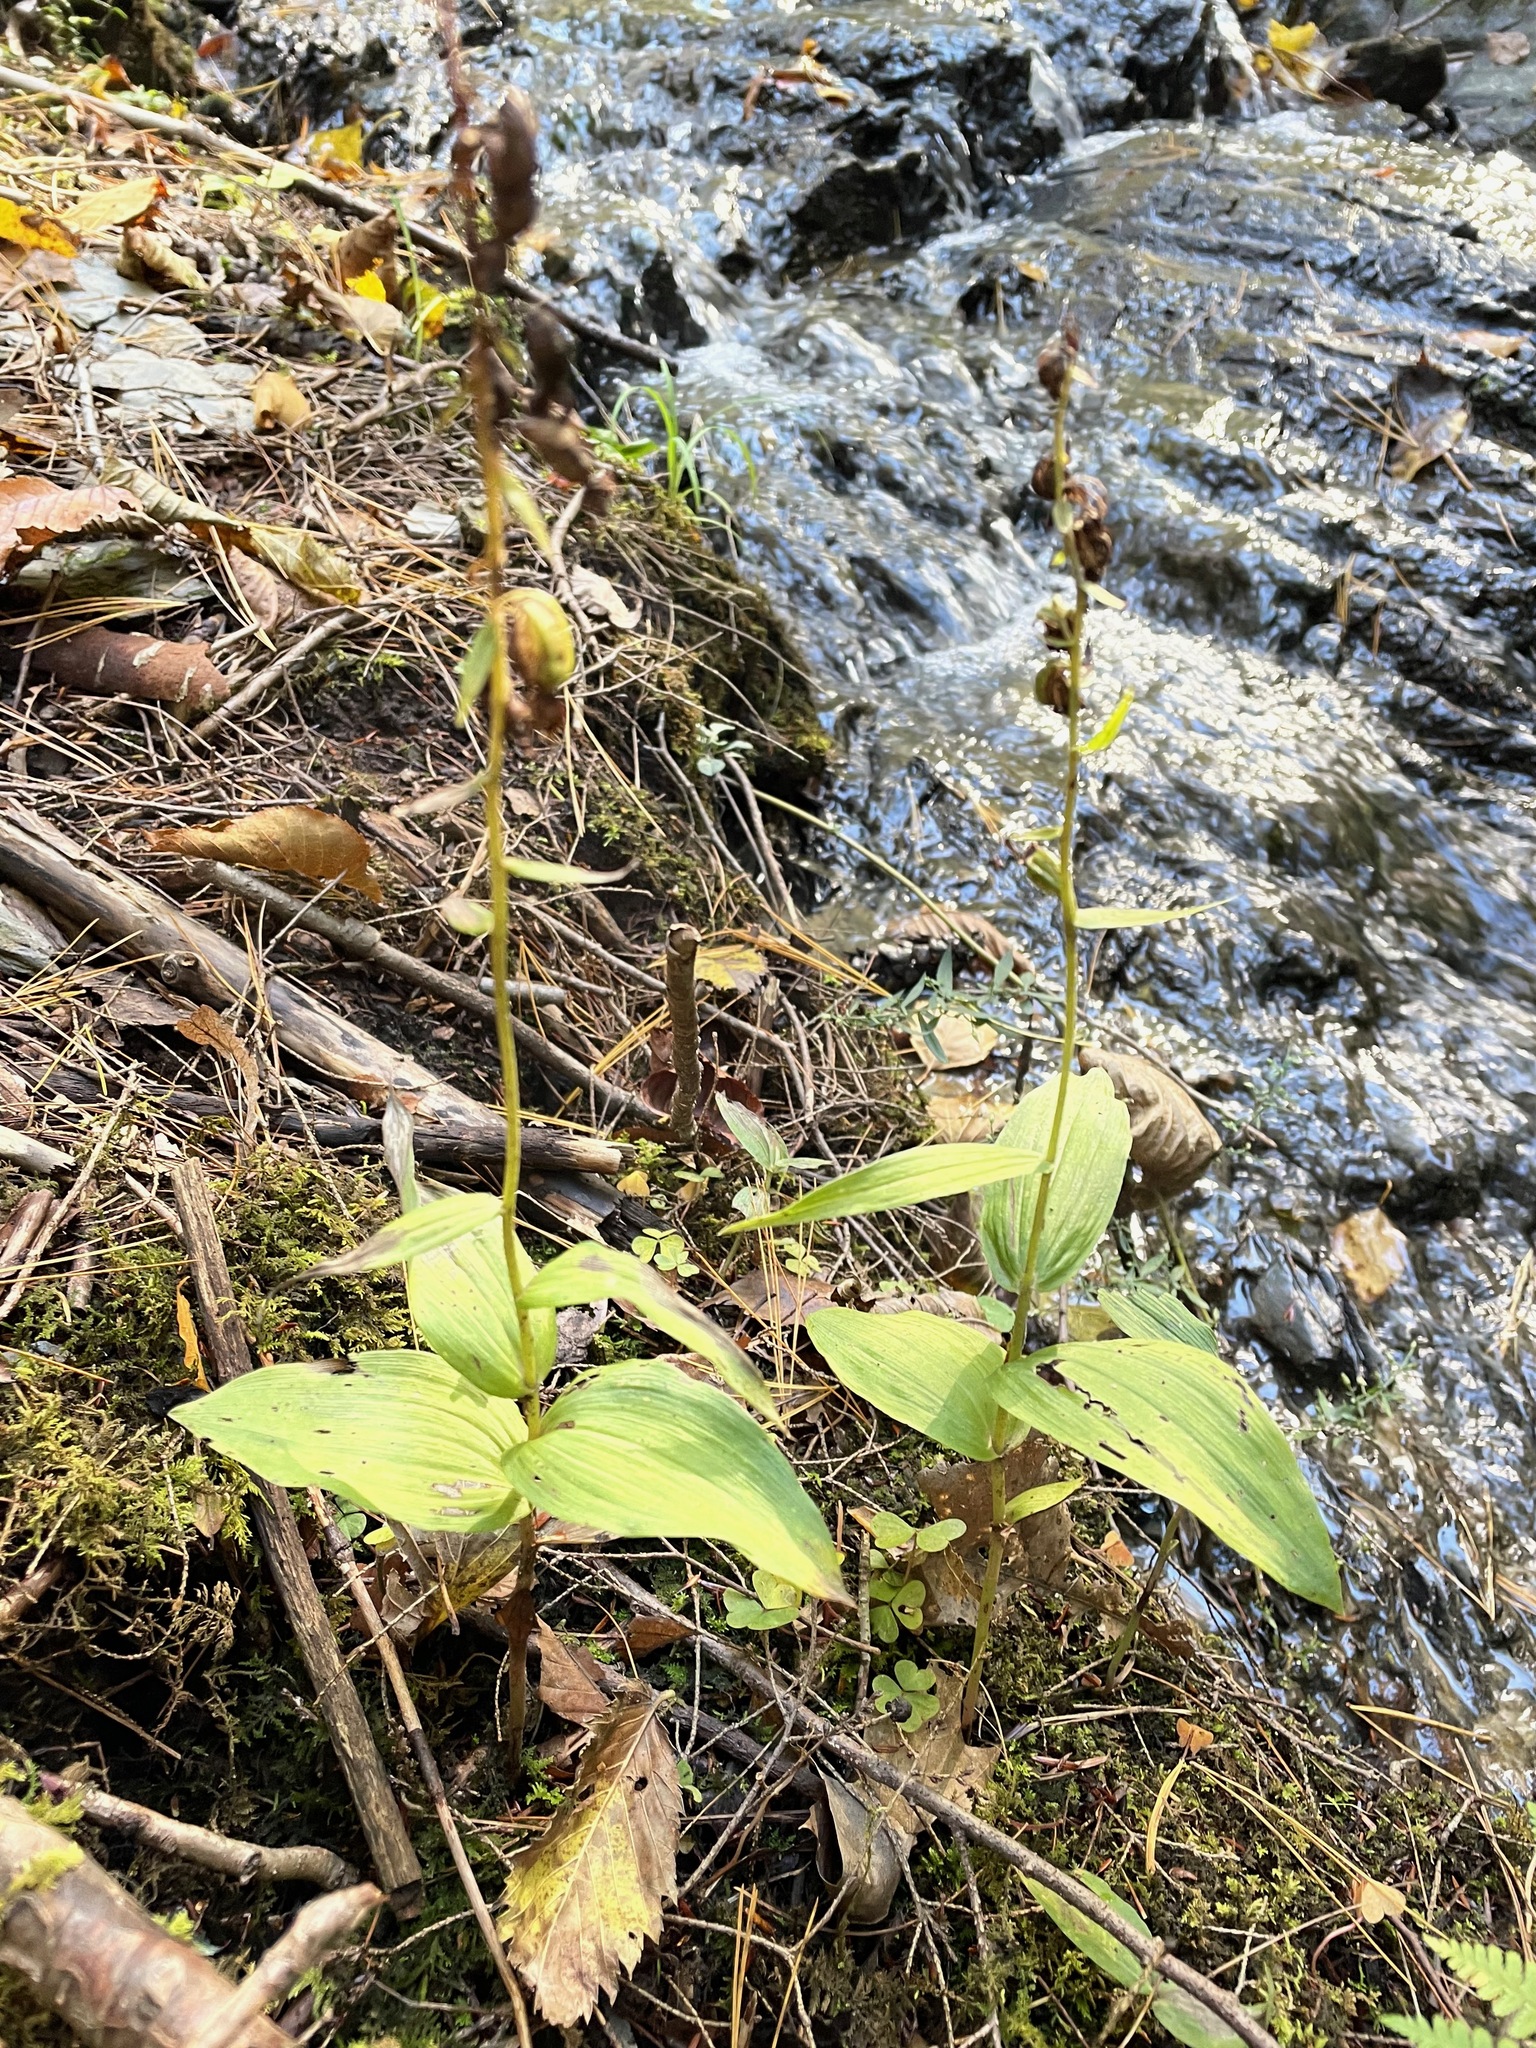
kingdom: Plantae
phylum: Tracheophyta
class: Liliopsida
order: Asparagales
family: Orchidaceae
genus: Epipactis
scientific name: Epipactis helleborine
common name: Broad-leaved helleborine
